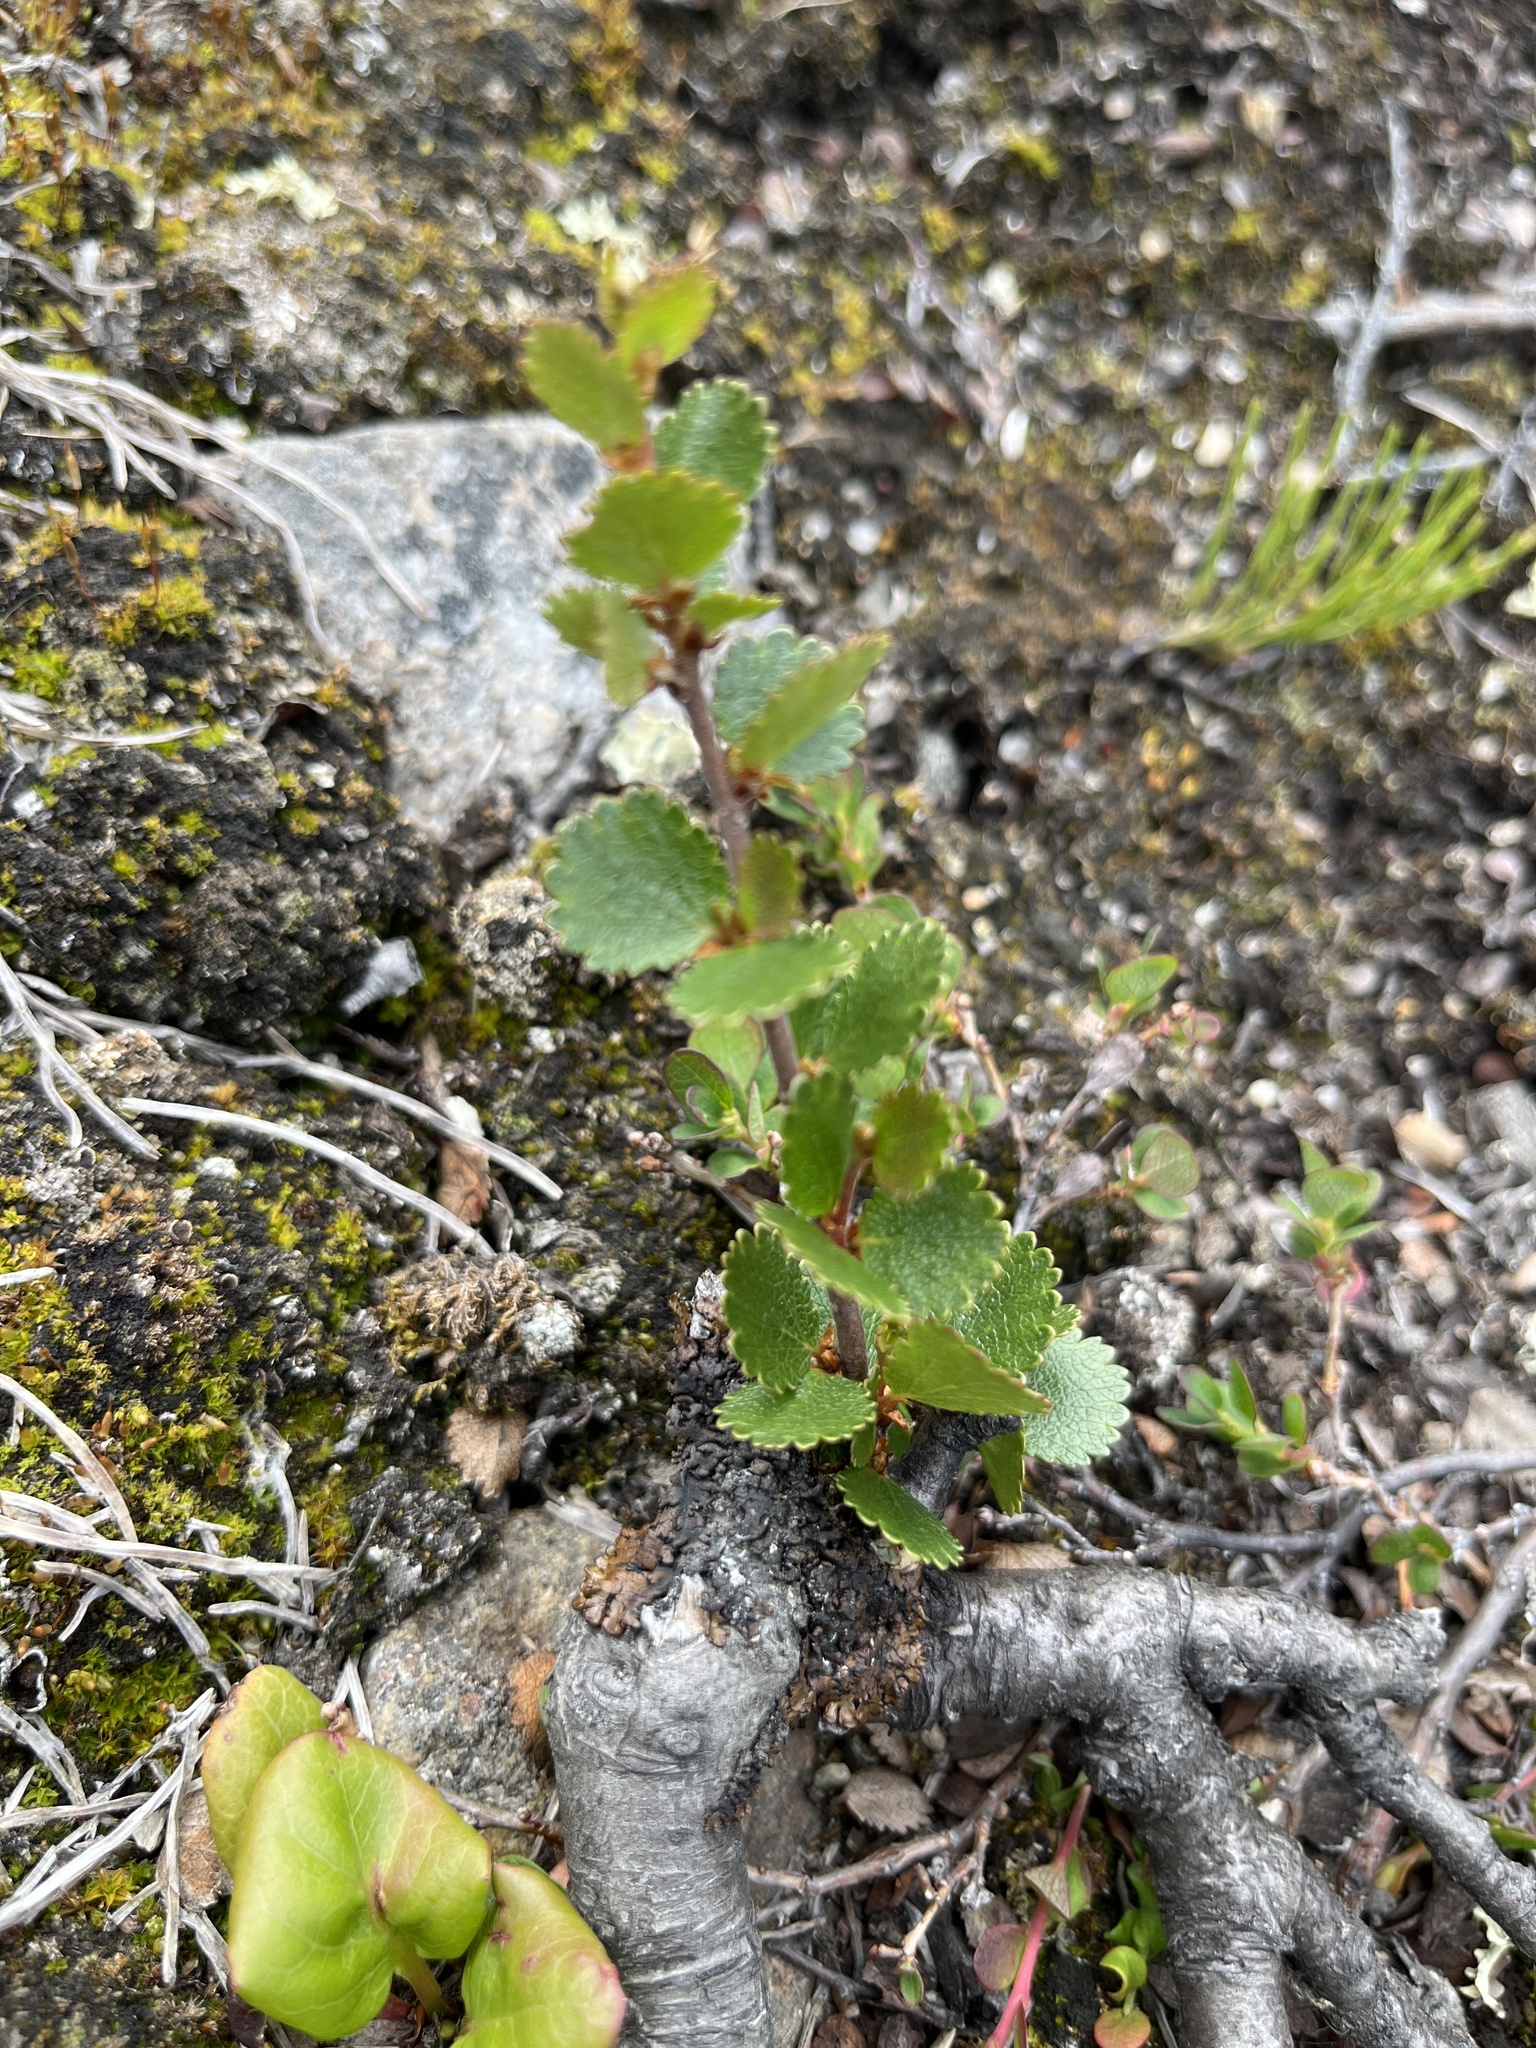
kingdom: Plantae
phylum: Tracheophyta
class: Magnoliopsida
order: Fagales
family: Betulaceae
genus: Betula
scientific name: Betula nana
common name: Arctic dwarf birch
